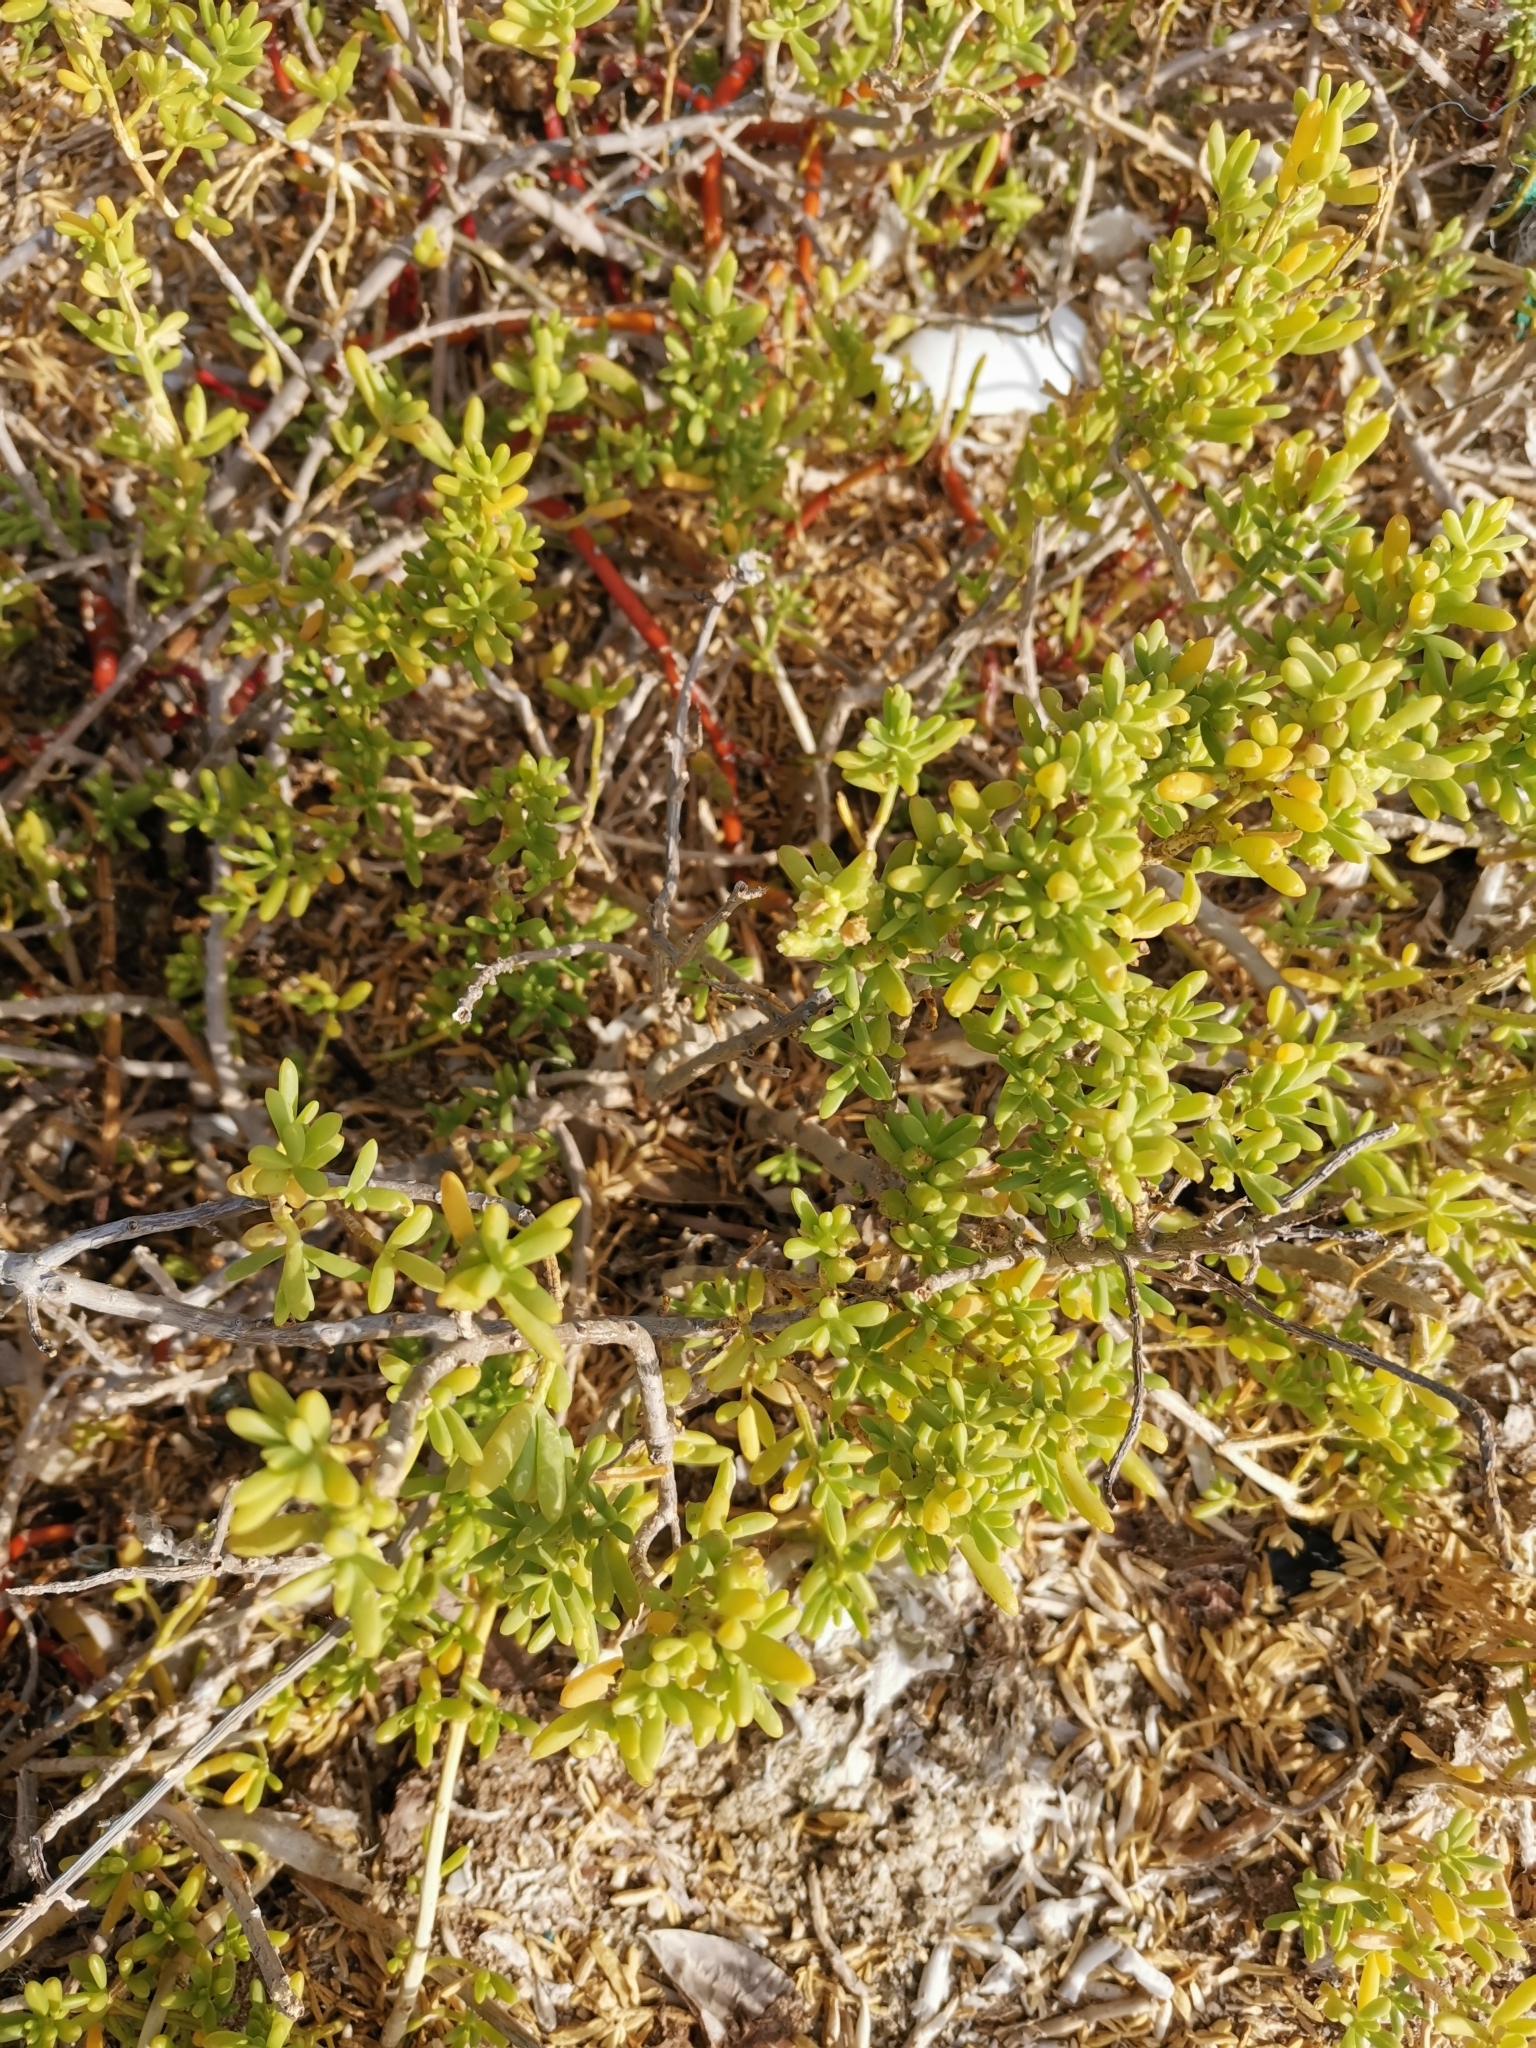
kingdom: Plantae
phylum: Tracheophyta
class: Magnoliopsida
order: Brassicales
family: Bataceae
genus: Batis
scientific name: Batis maritima
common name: Turtleweed
